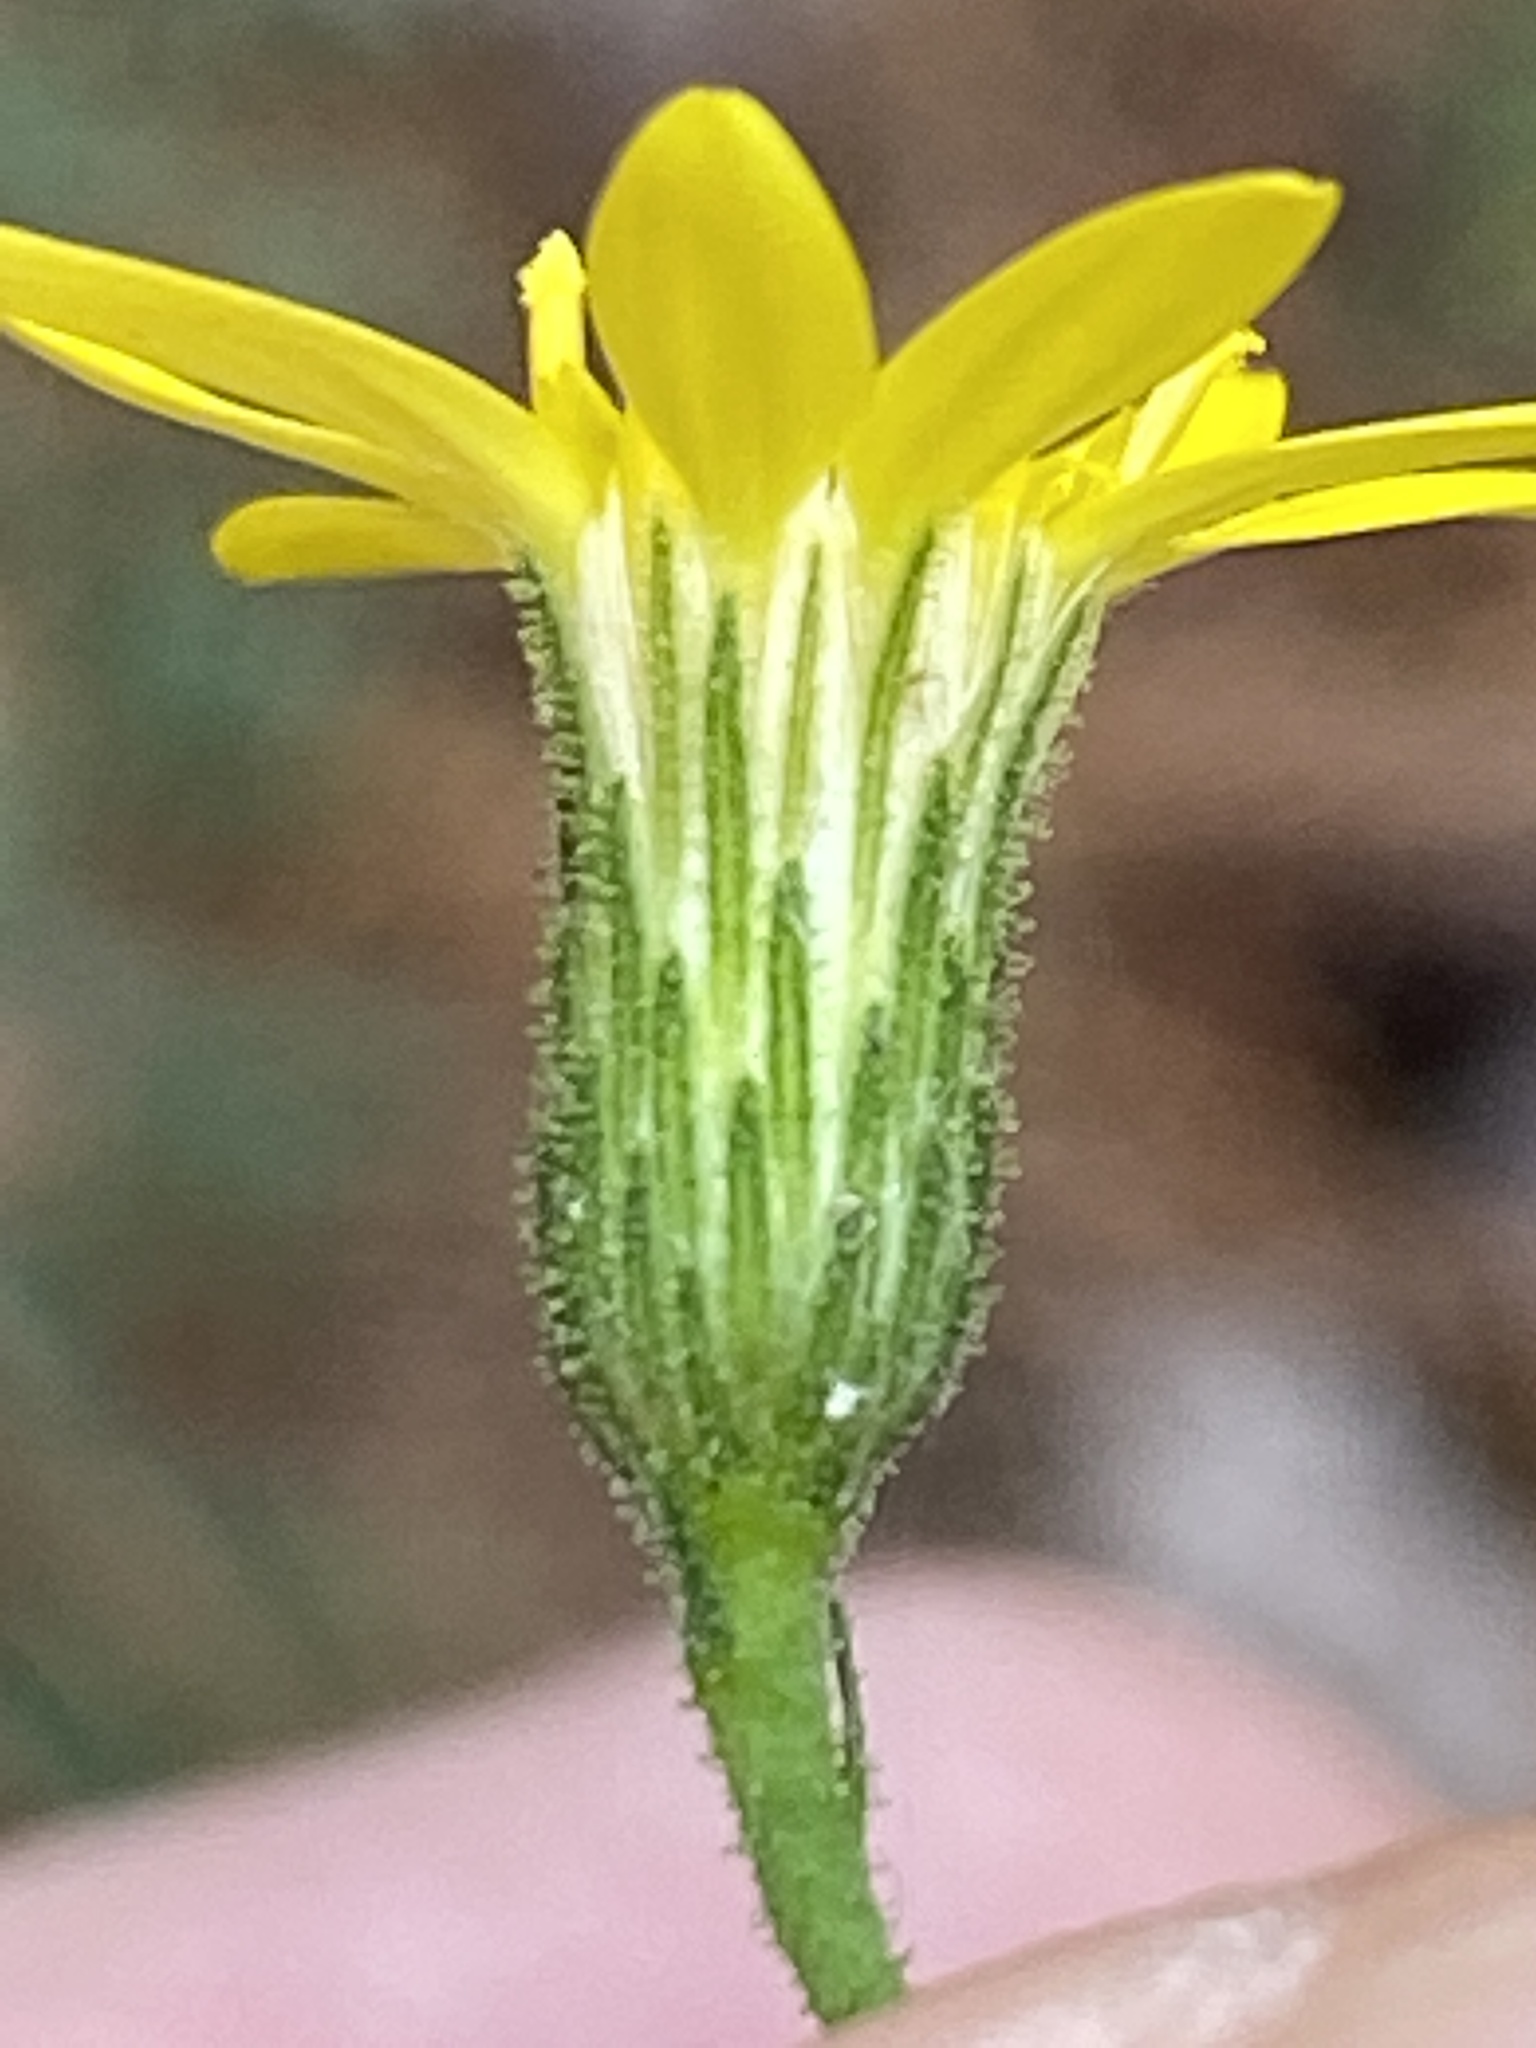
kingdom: Plantae
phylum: Tracheophyta
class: Magnoliopsida
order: Asterales
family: Asteraceae
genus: Pityopsis
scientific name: Pityopsis aspera
